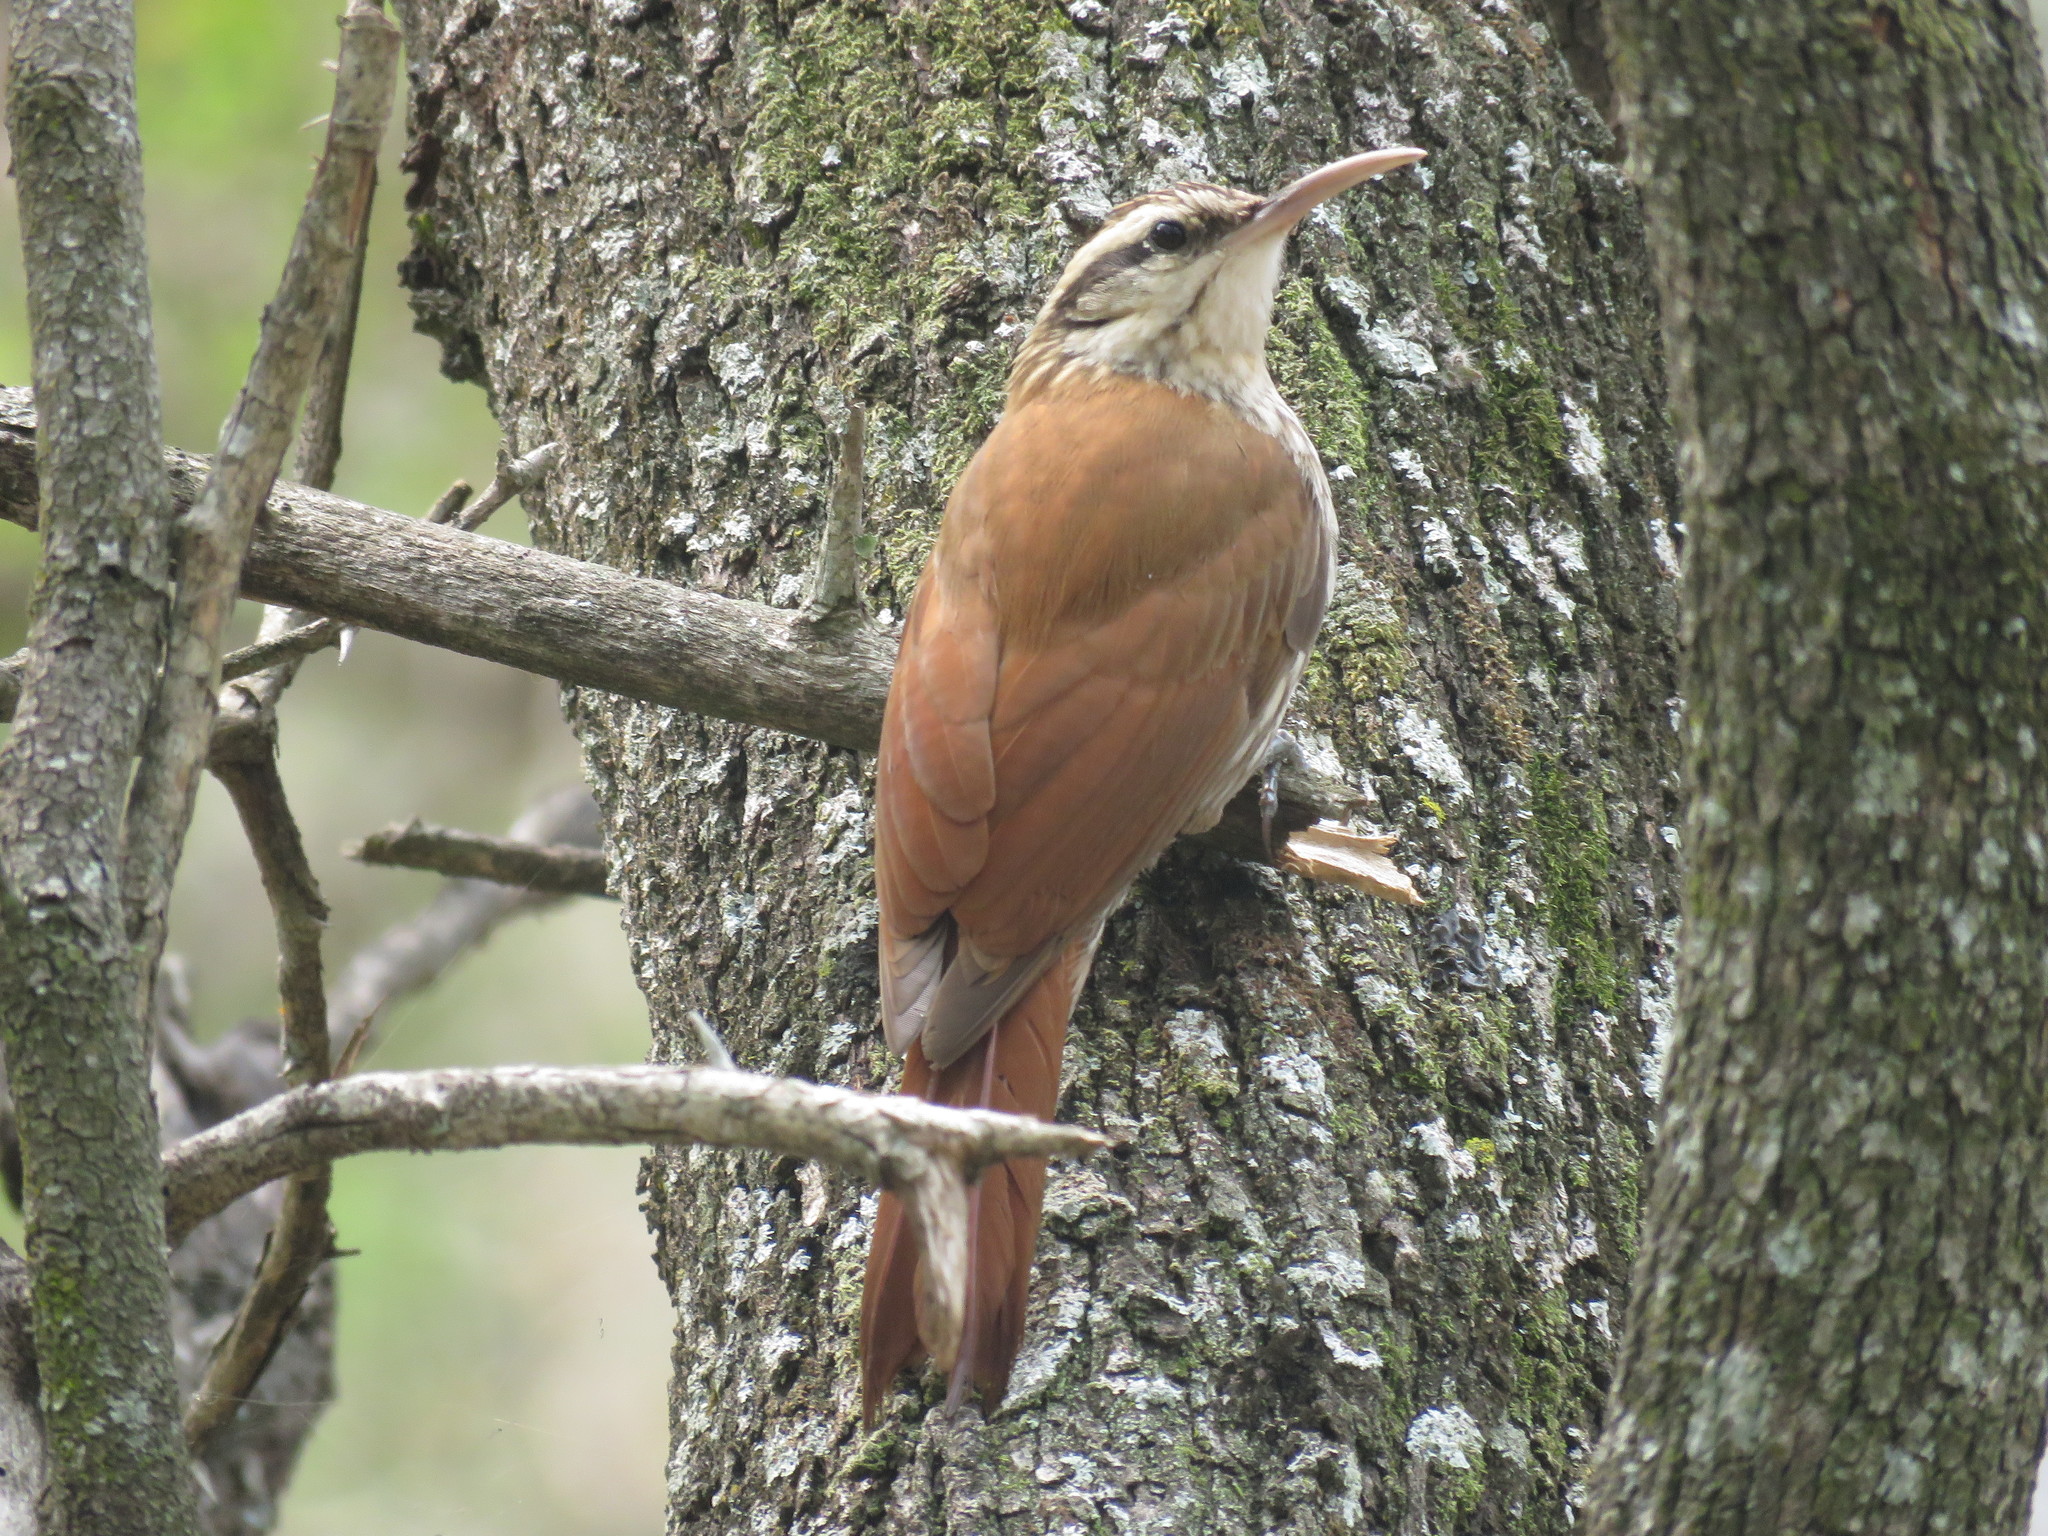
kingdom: Animalia
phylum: Chordata
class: Aves
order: Passeriformes
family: Furnariidae
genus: Lepidocolaptes
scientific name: Lepidocolaptes angustirostris
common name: Narrow-billed woodcreeper
